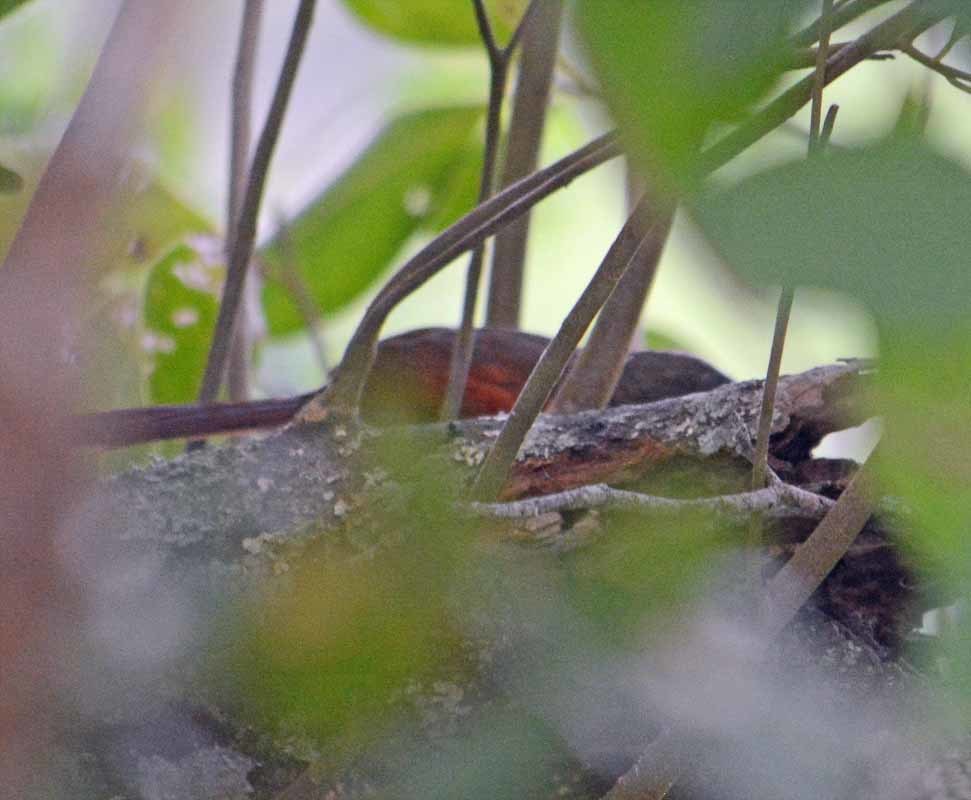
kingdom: Animalia
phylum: Chordata
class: Aves
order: Passeriformes
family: Furnariidae
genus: Synallaxis
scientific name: Synallaxis erythrothorax
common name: Rufous-breasted spinetail
